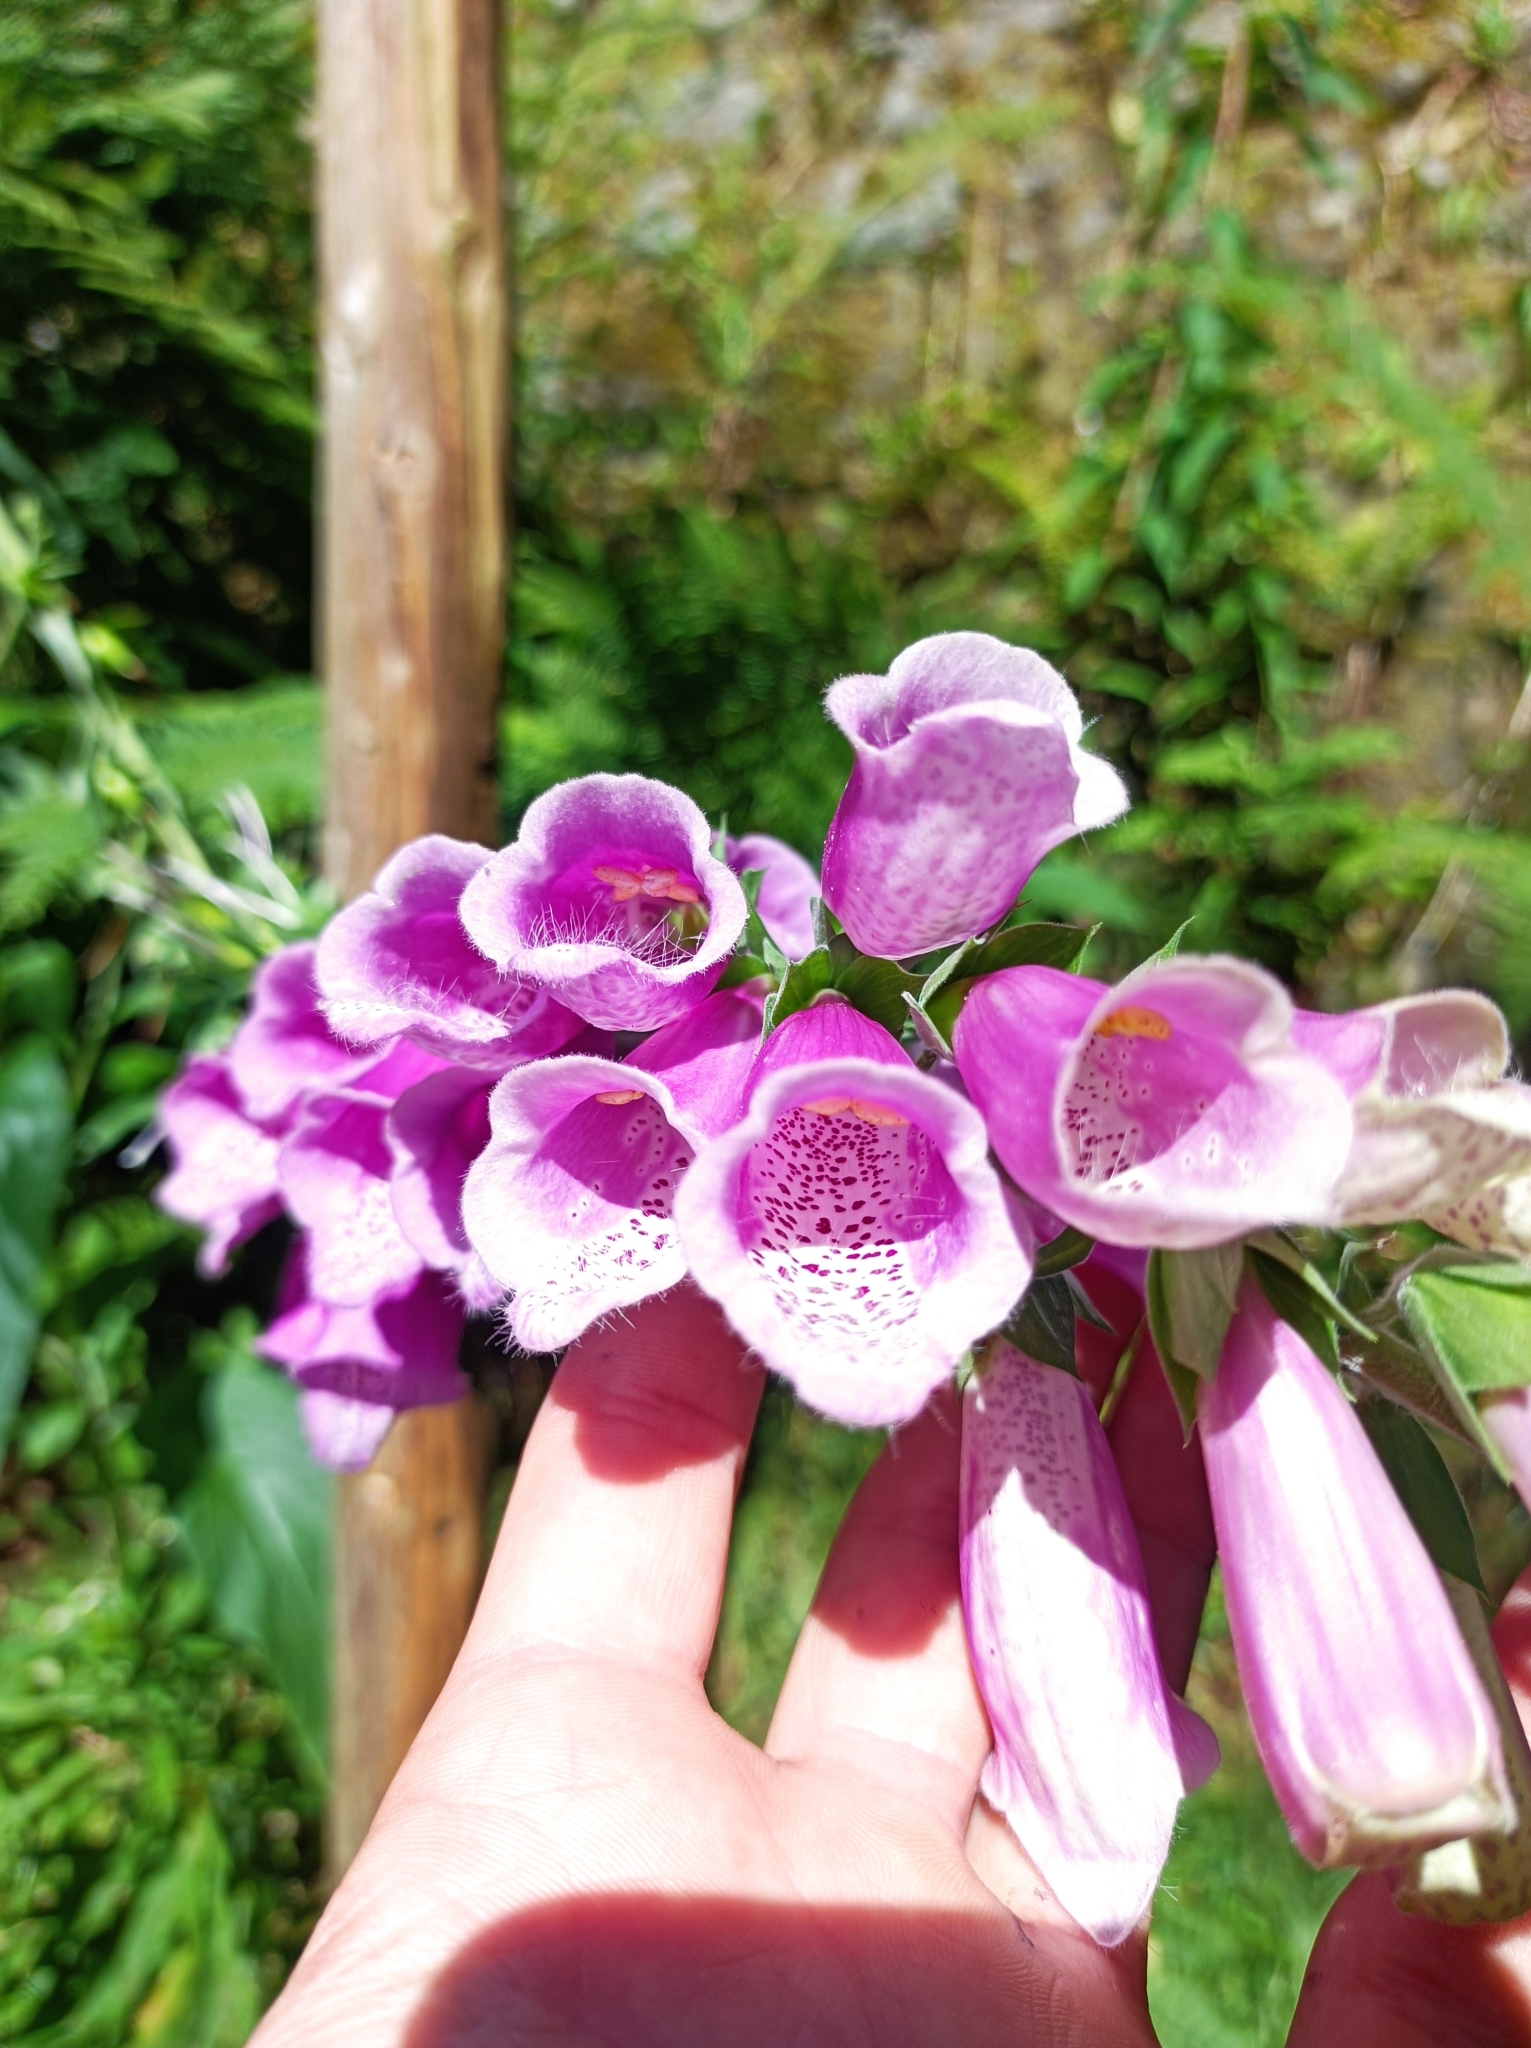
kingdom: Plantae
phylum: Tracheophyta
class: Magnoliopsida
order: Lamiales
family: Plantaginaceae
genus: Digitalis
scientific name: Digitalis purpurea
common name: Foxglove
